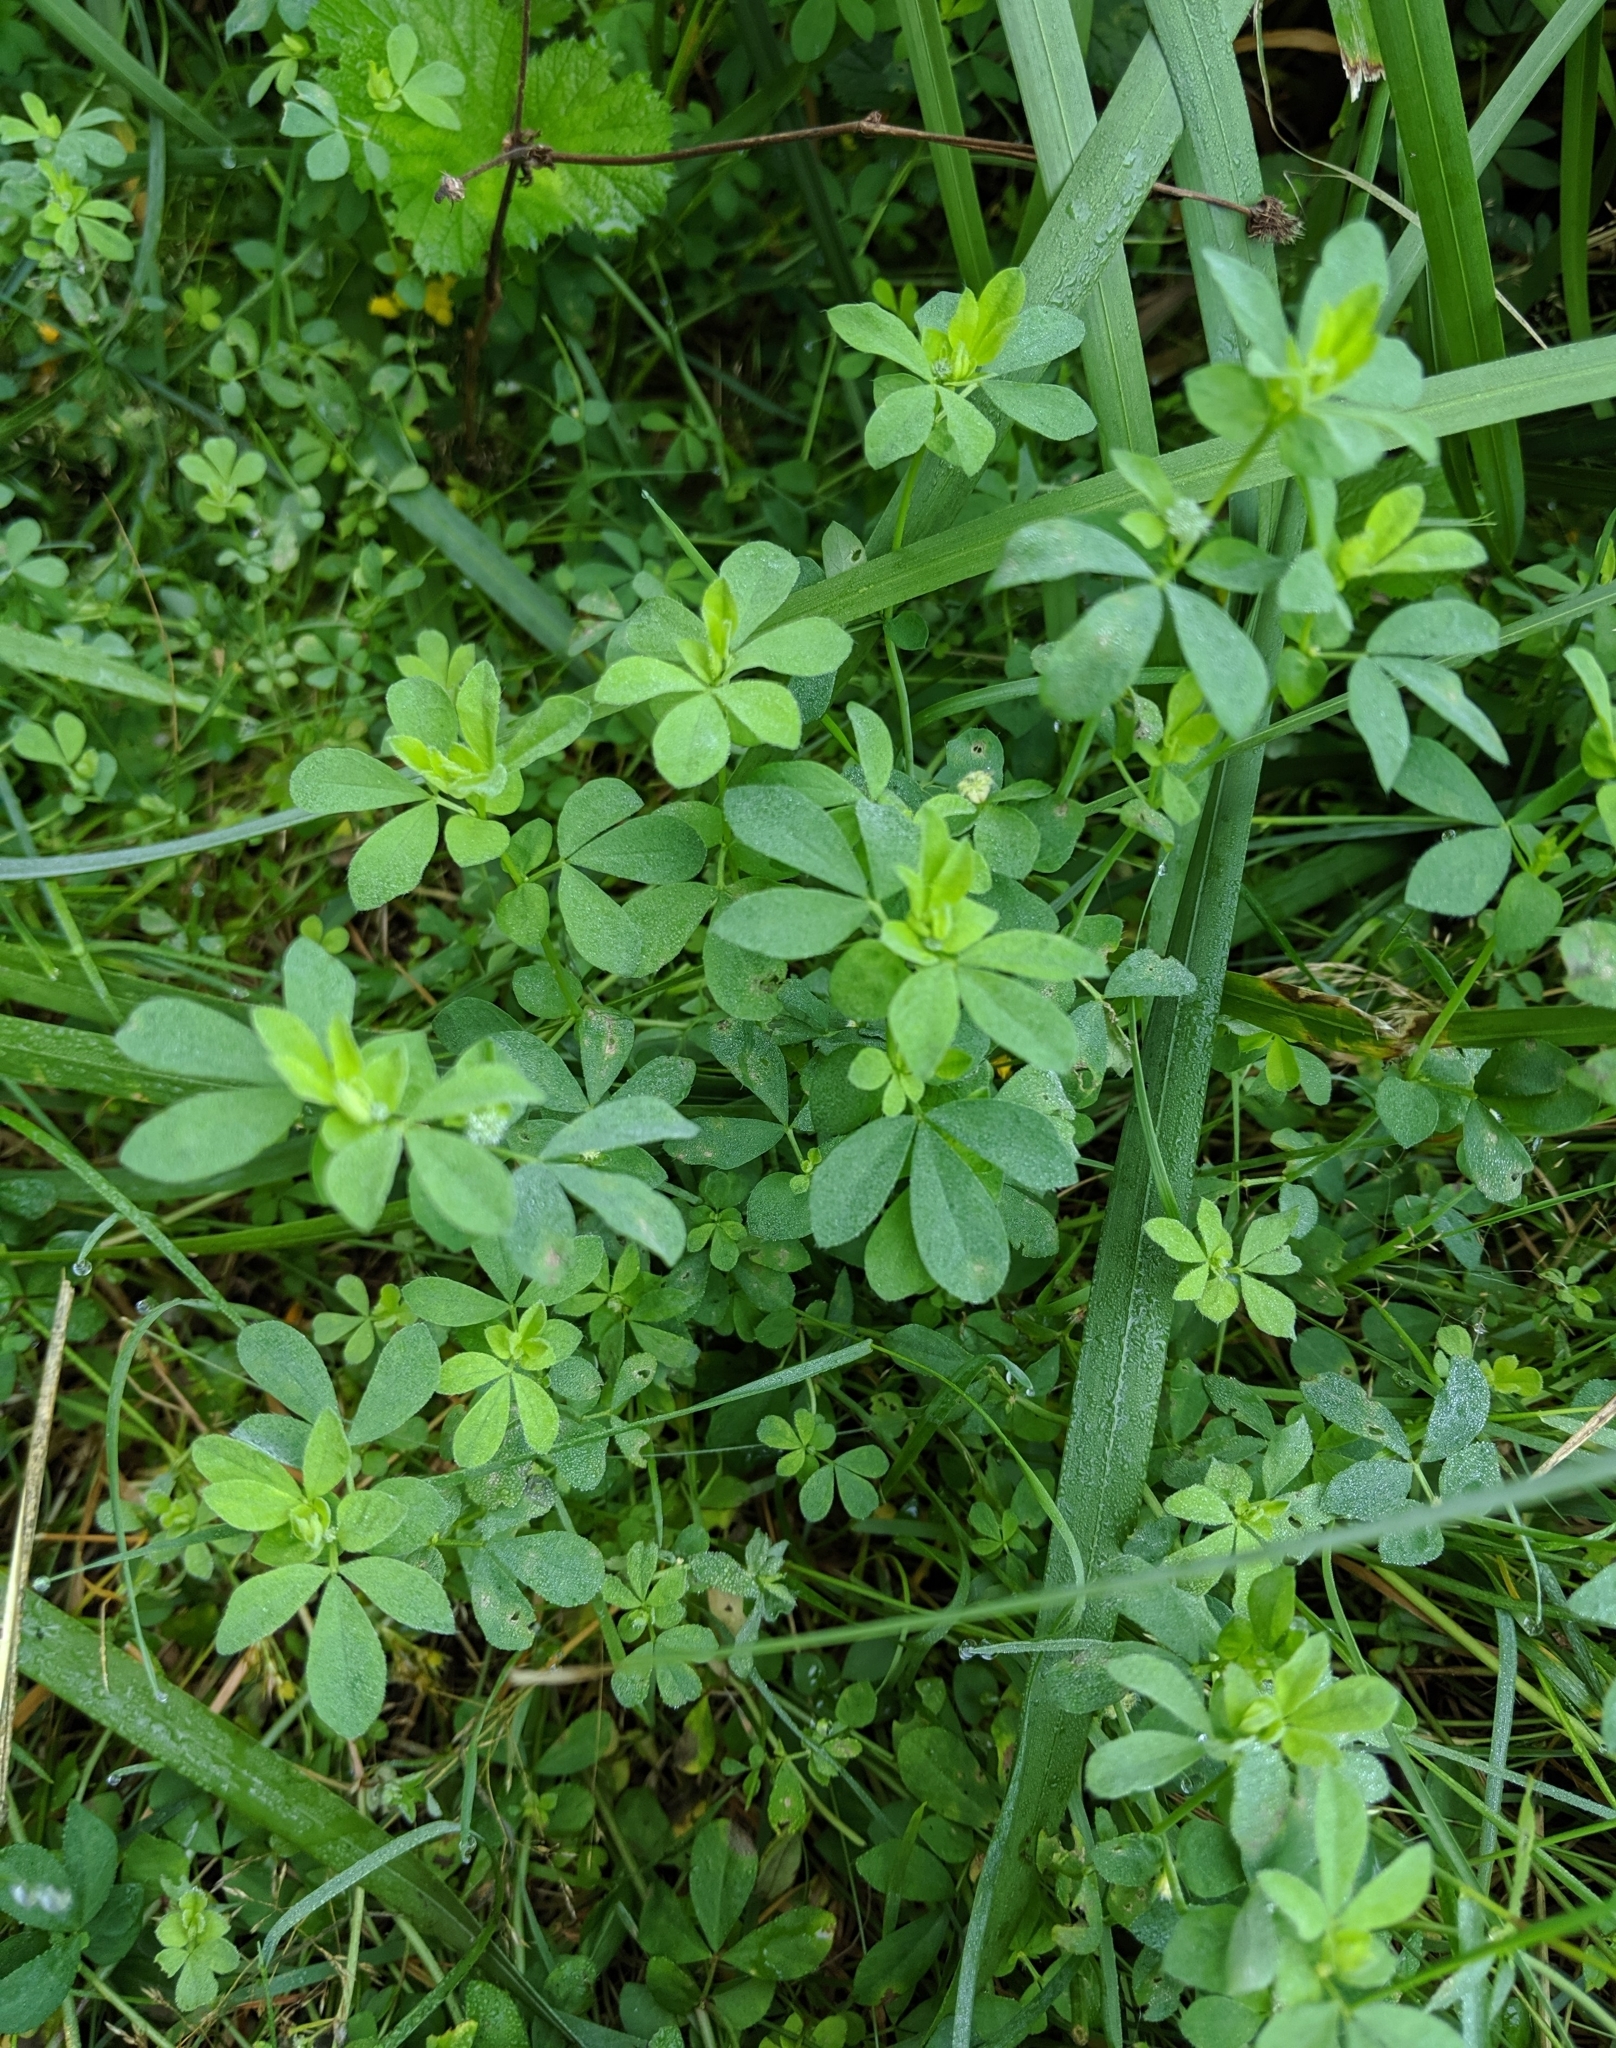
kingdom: Plantae
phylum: Tracheophyta
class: Magnoliopsida
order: Fabales
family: Fabaceae
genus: Lotus
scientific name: Lotus corniculatus
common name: Common bird's-foot-trefoil
